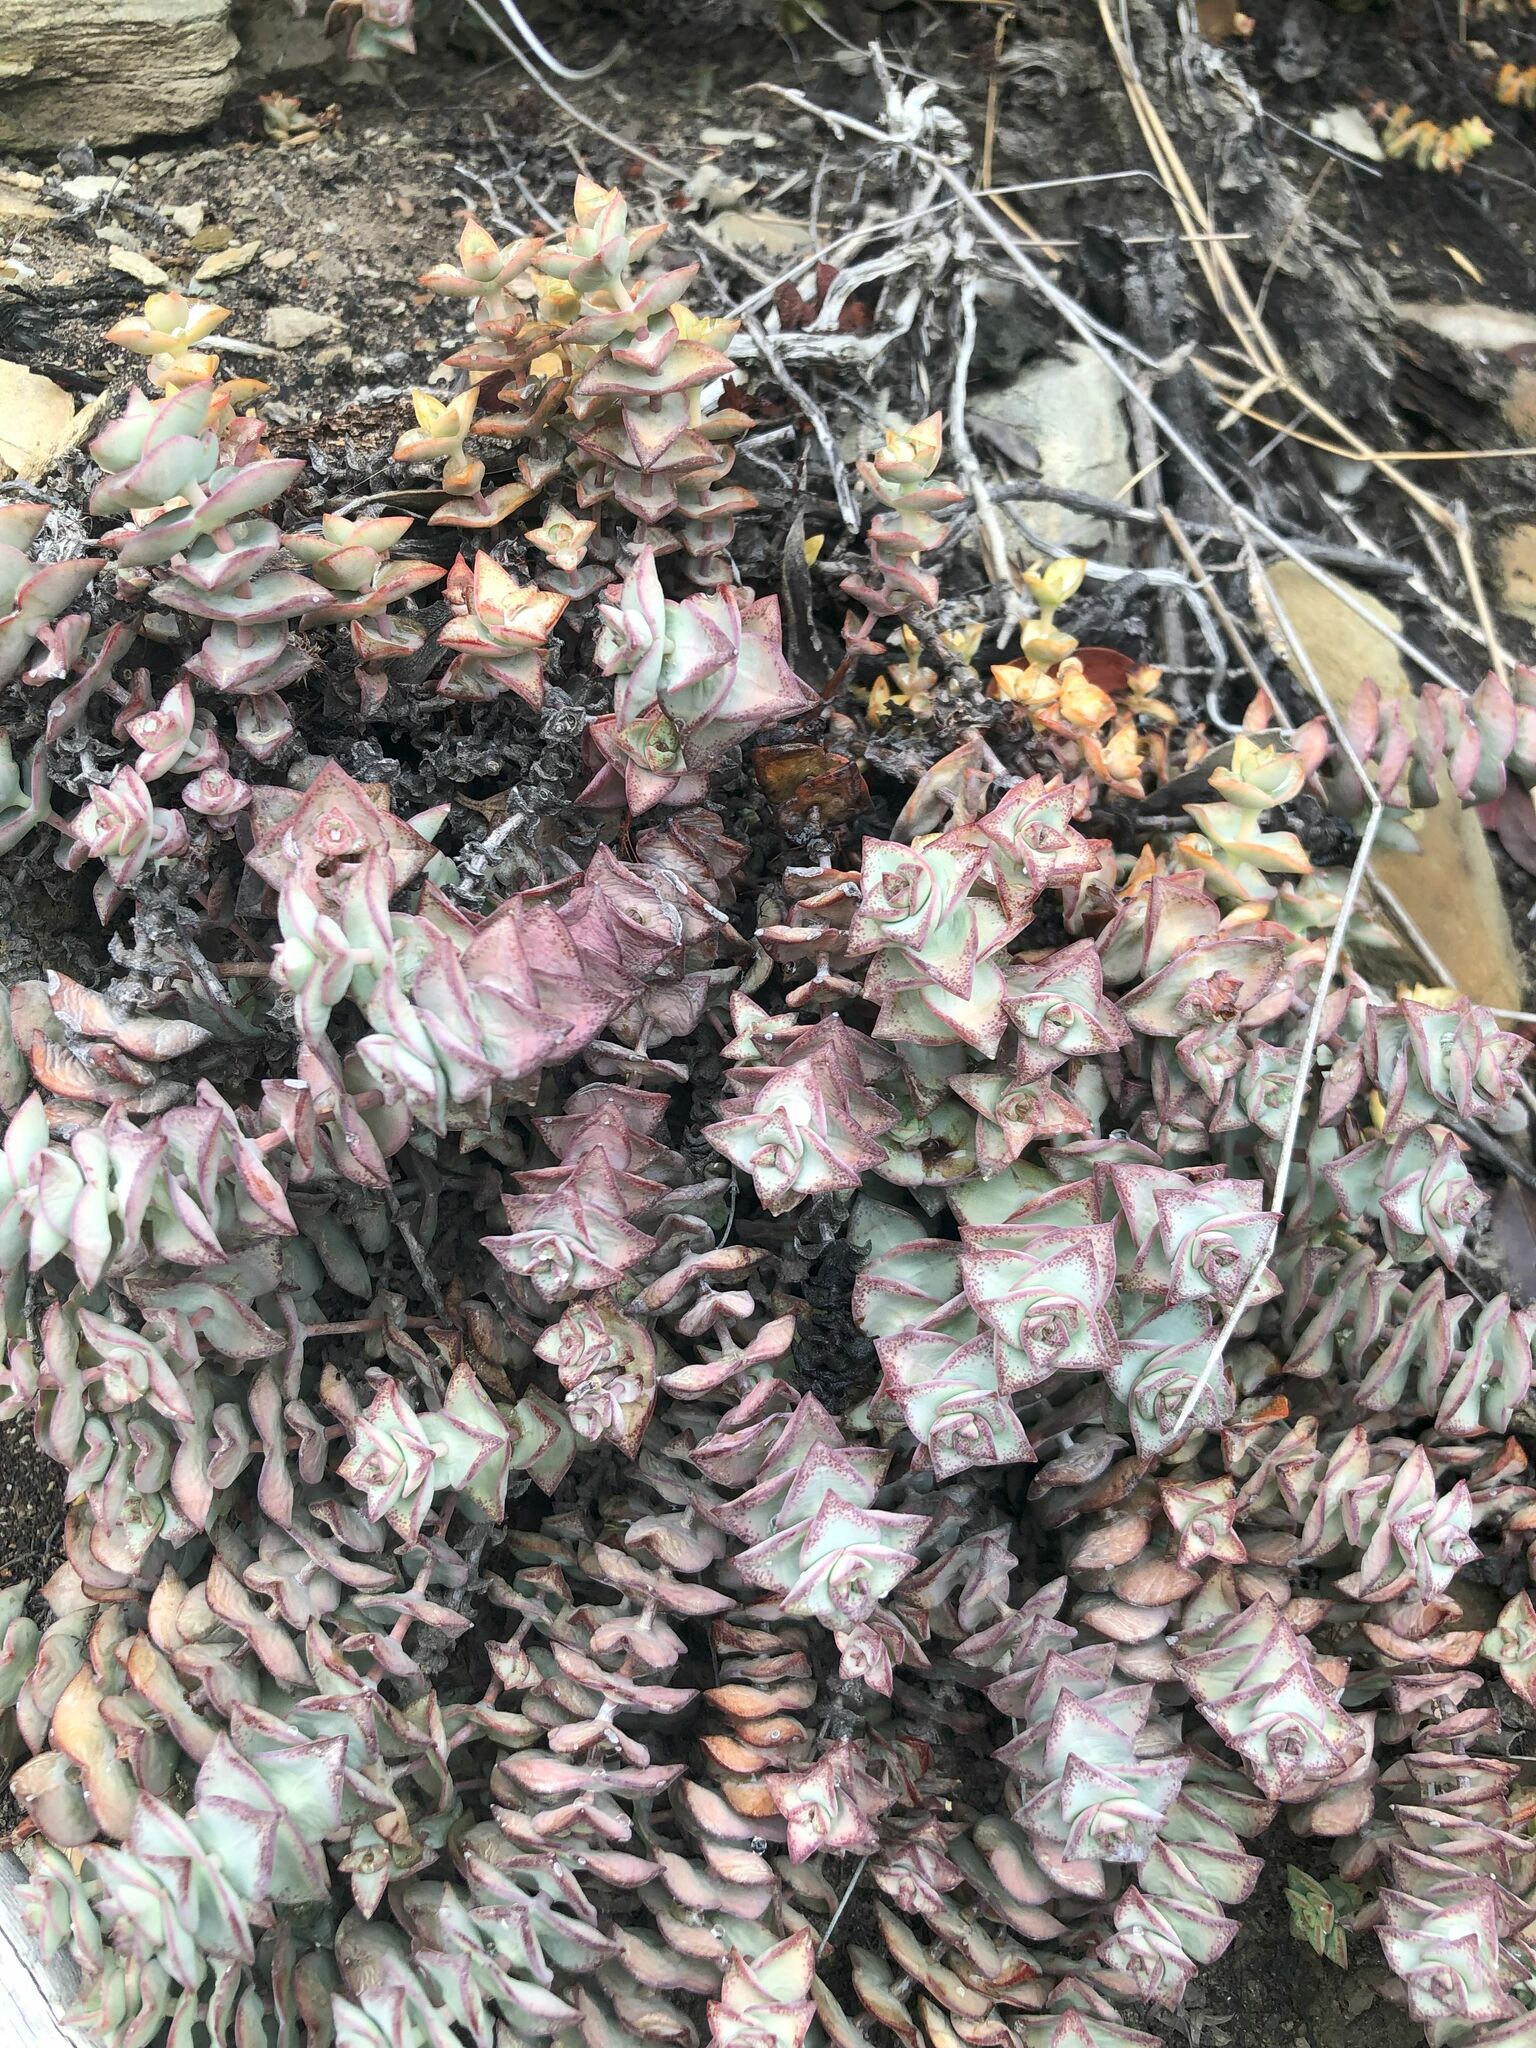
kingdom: Plantae
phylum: Tracheophyta
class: Magnoliopsida
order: Saxifragales
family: Crassulaceae
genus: Crassula
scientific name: Crassula perforata
